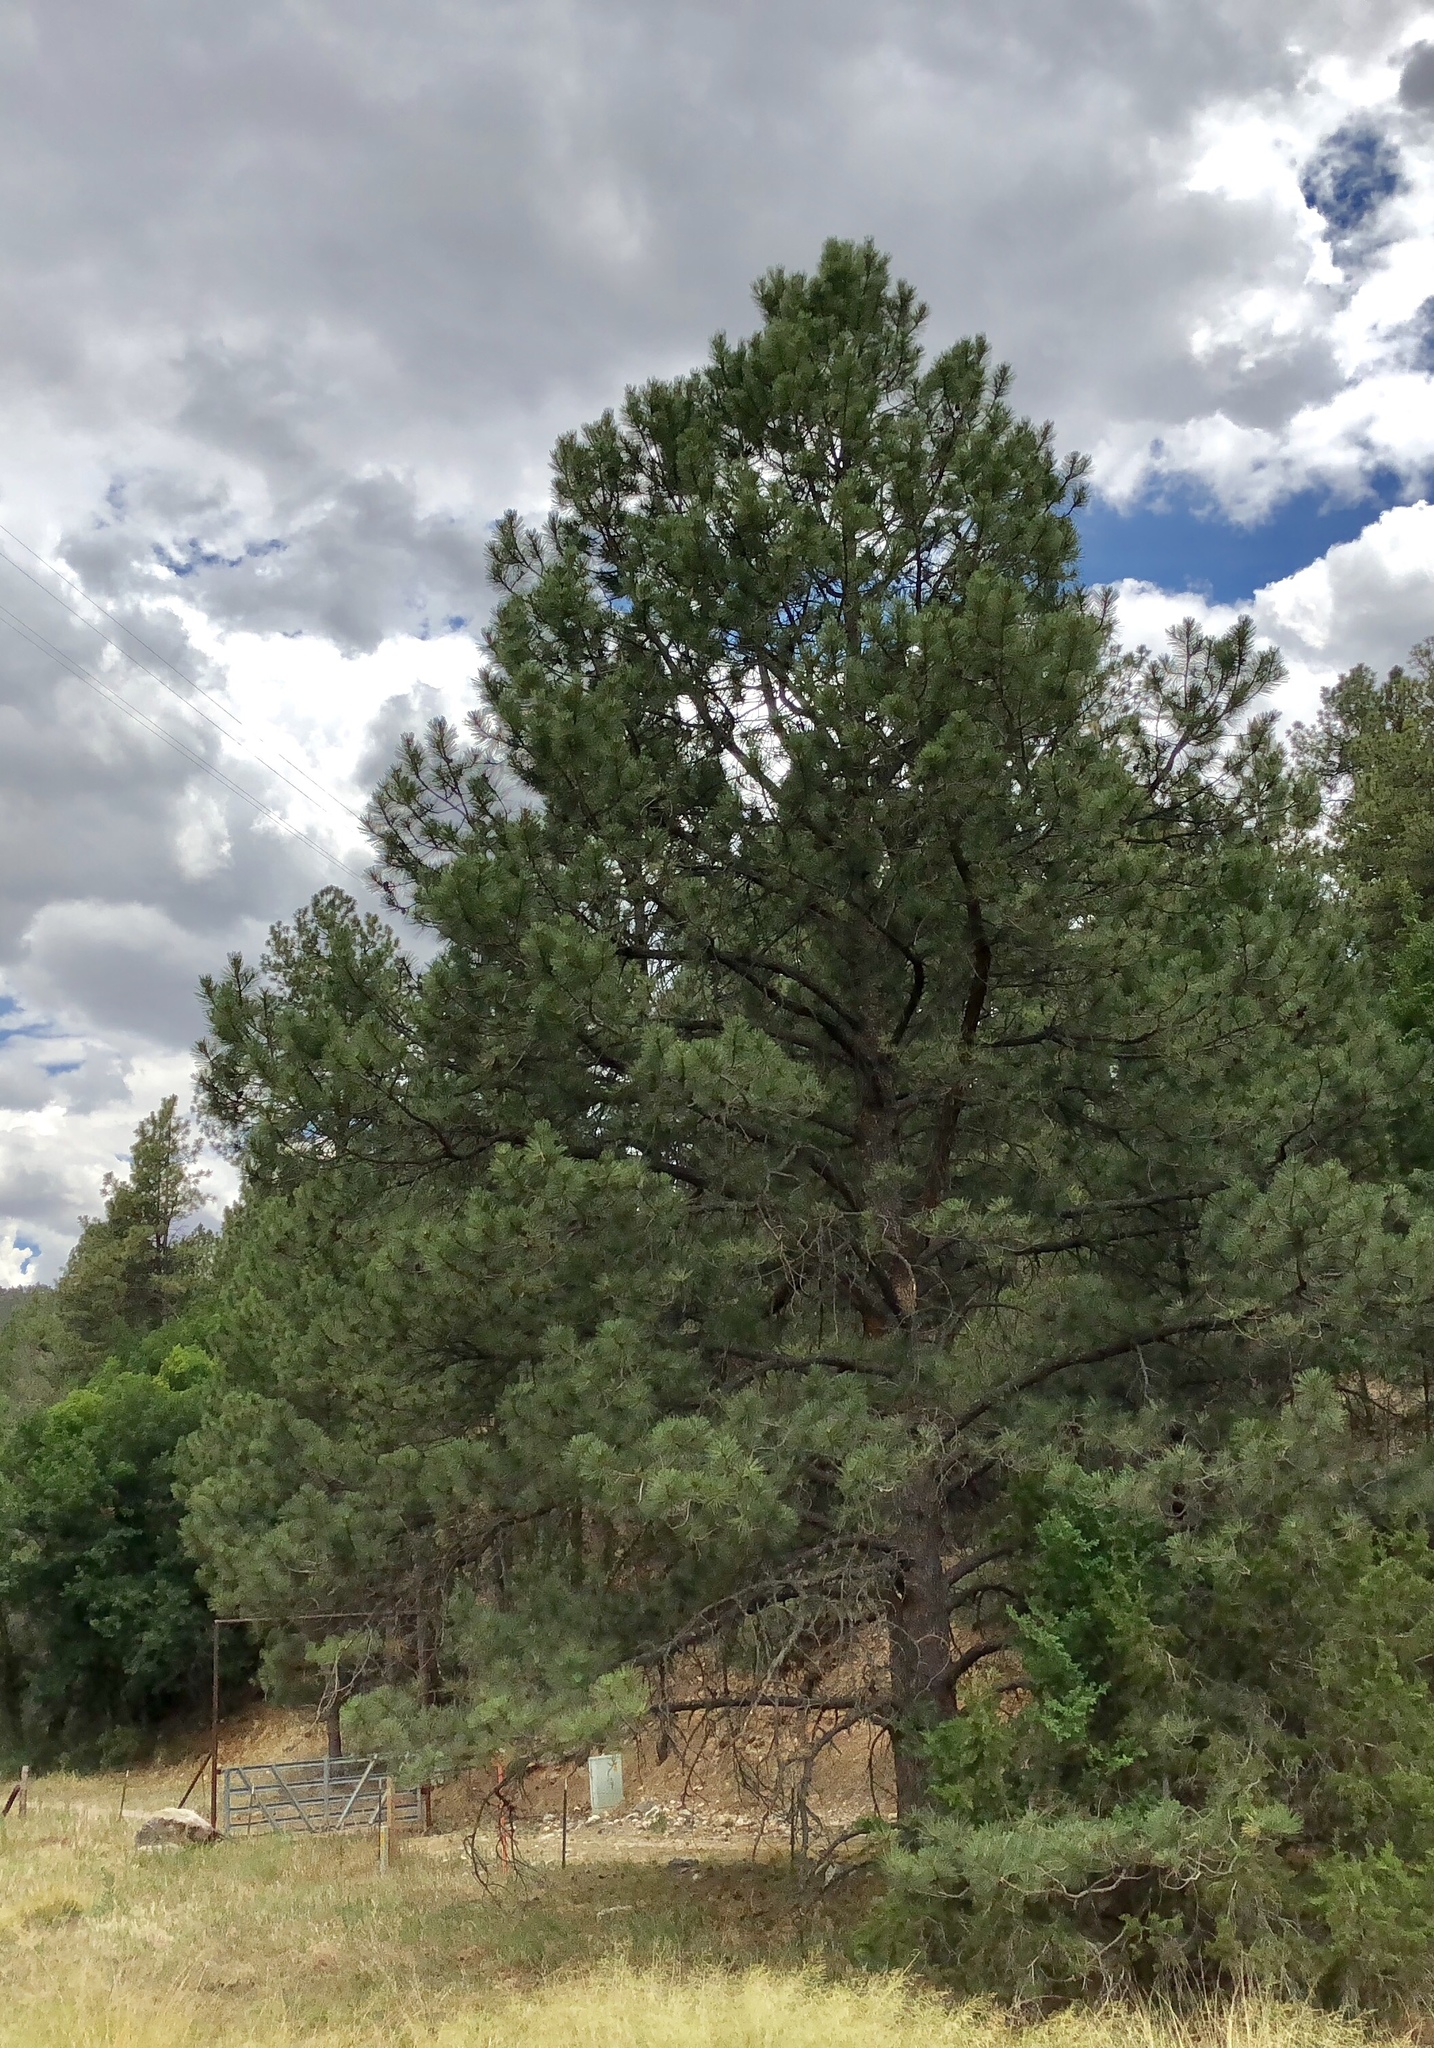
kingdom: Plantae
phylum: Tracheophyta
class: Pinopsida
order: Pinales
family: Pinaceae
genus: Pinus
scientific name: Pinus ponderosa
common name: Western yellow-pine
